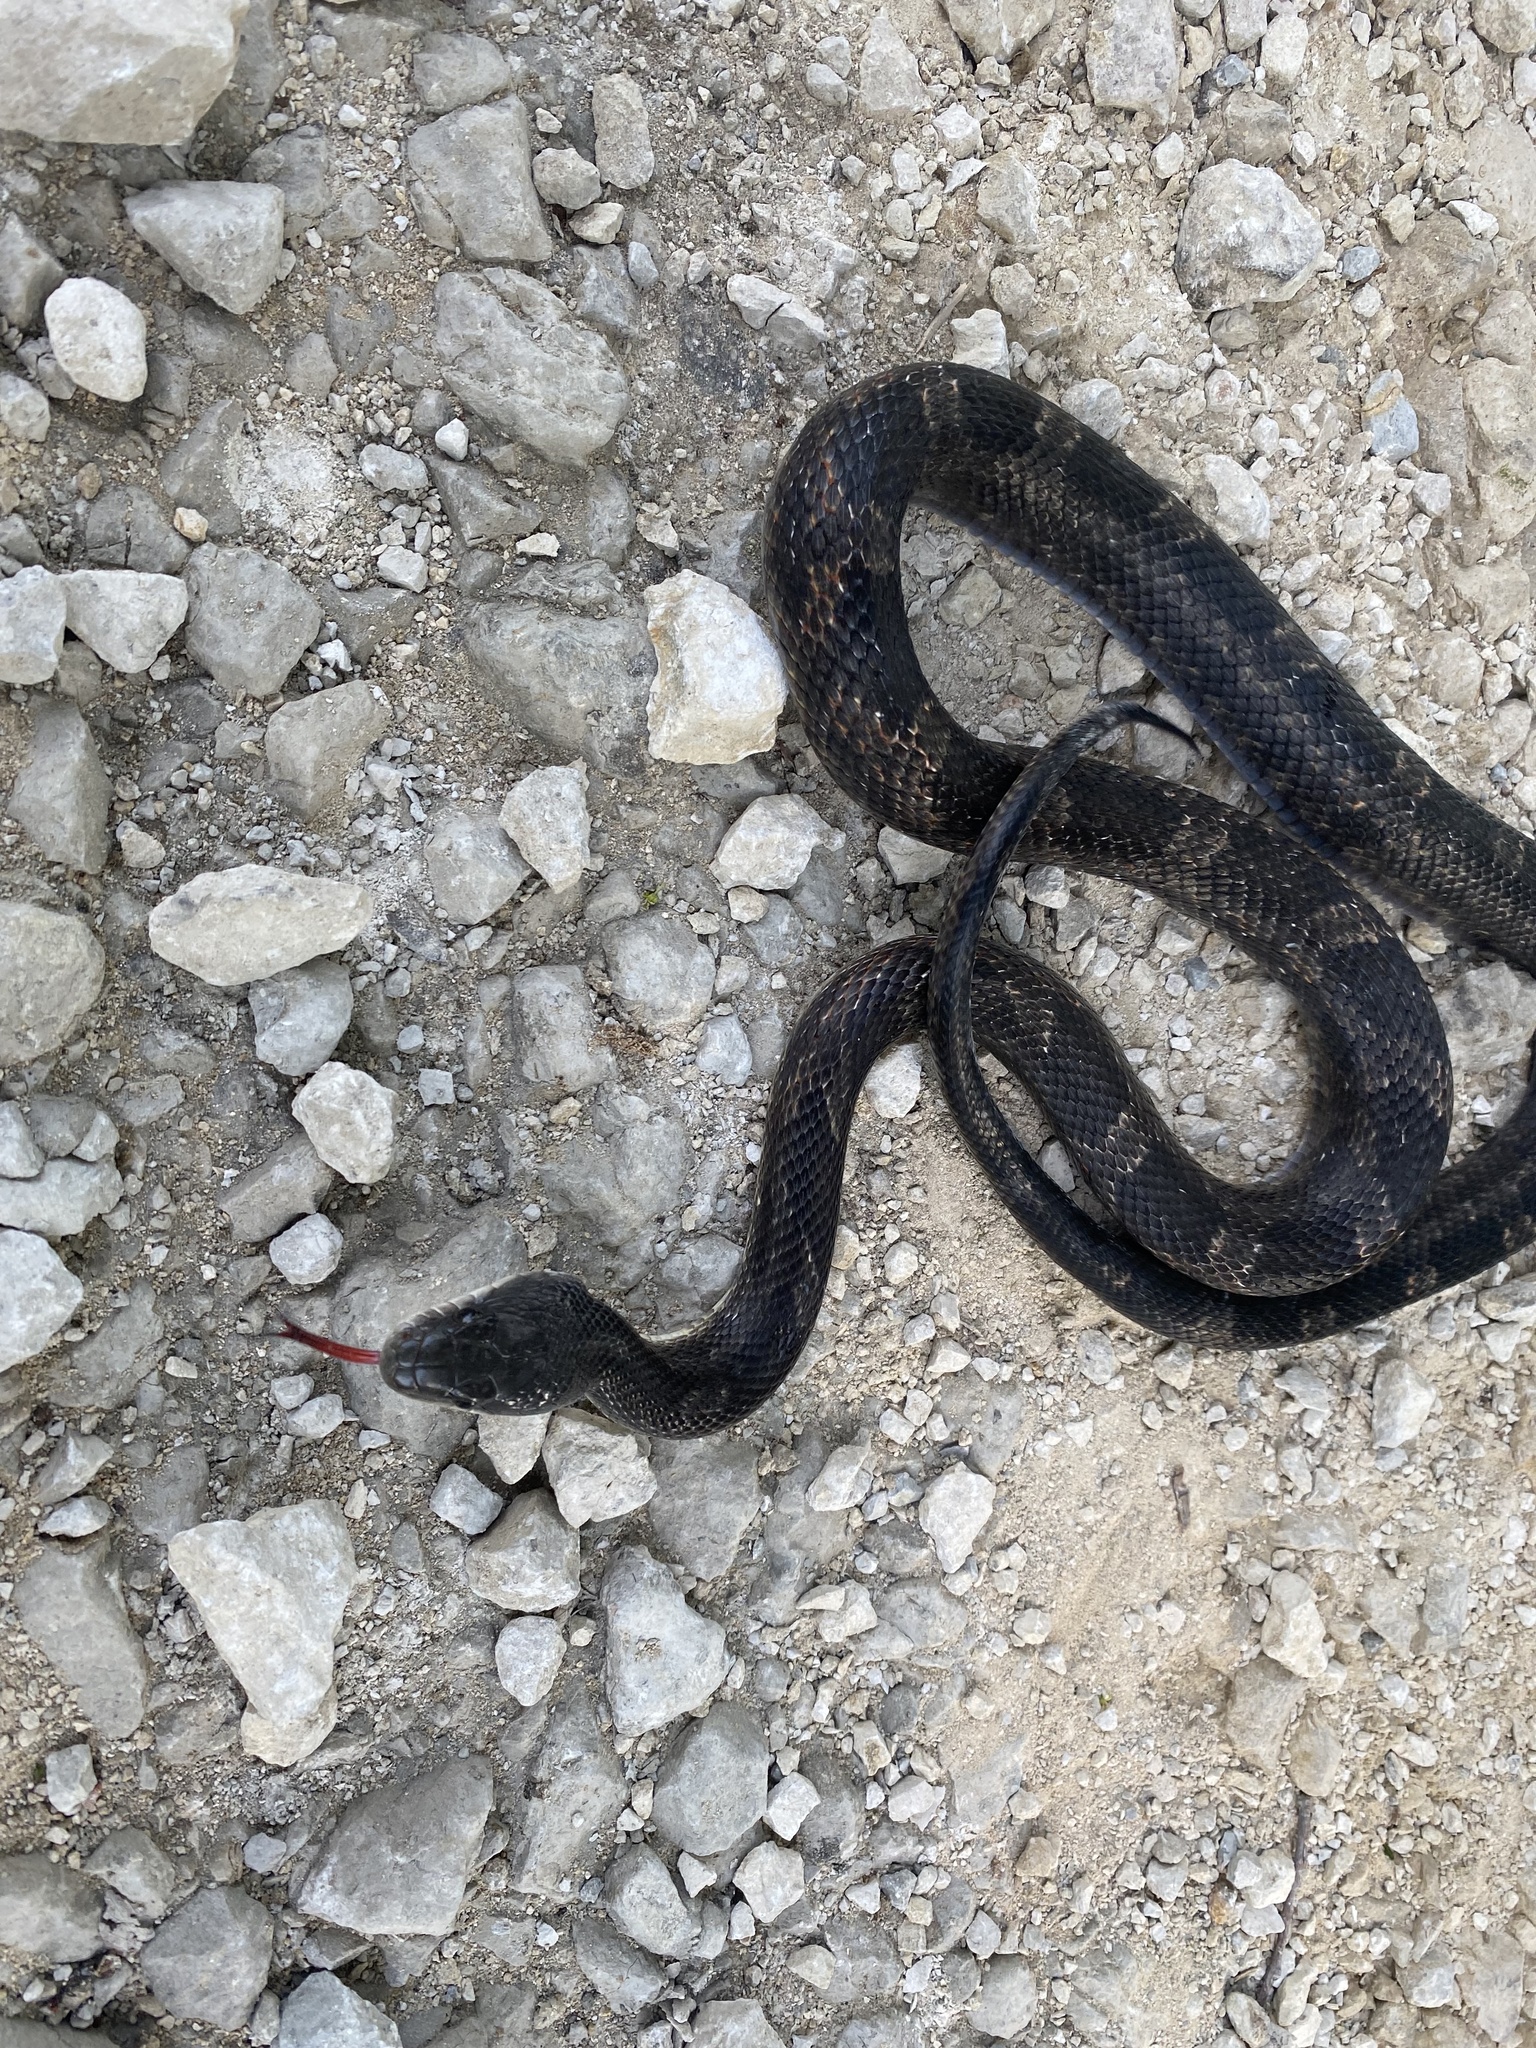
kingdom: Animalia
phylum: Chordata
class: Squamata
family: Colubridae
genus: Pantherophis
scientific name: Pantherophis obsoletus
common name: Black rat snake
